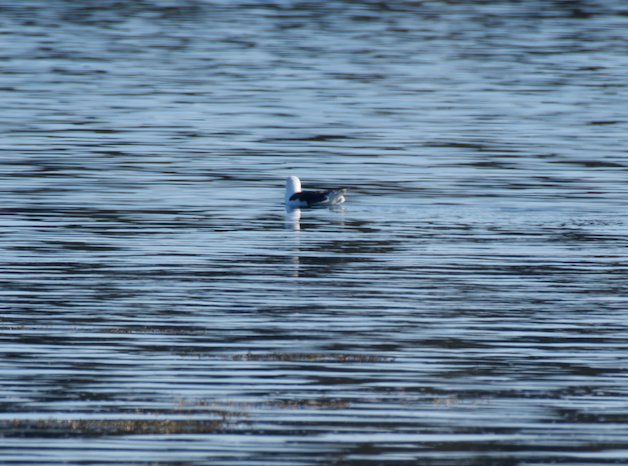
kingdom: Animalia
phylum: Chordata
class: Aves
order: Charadriiformes
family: Laridae
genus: Larus
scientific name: Larus marinus
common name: Great black-backed gull
